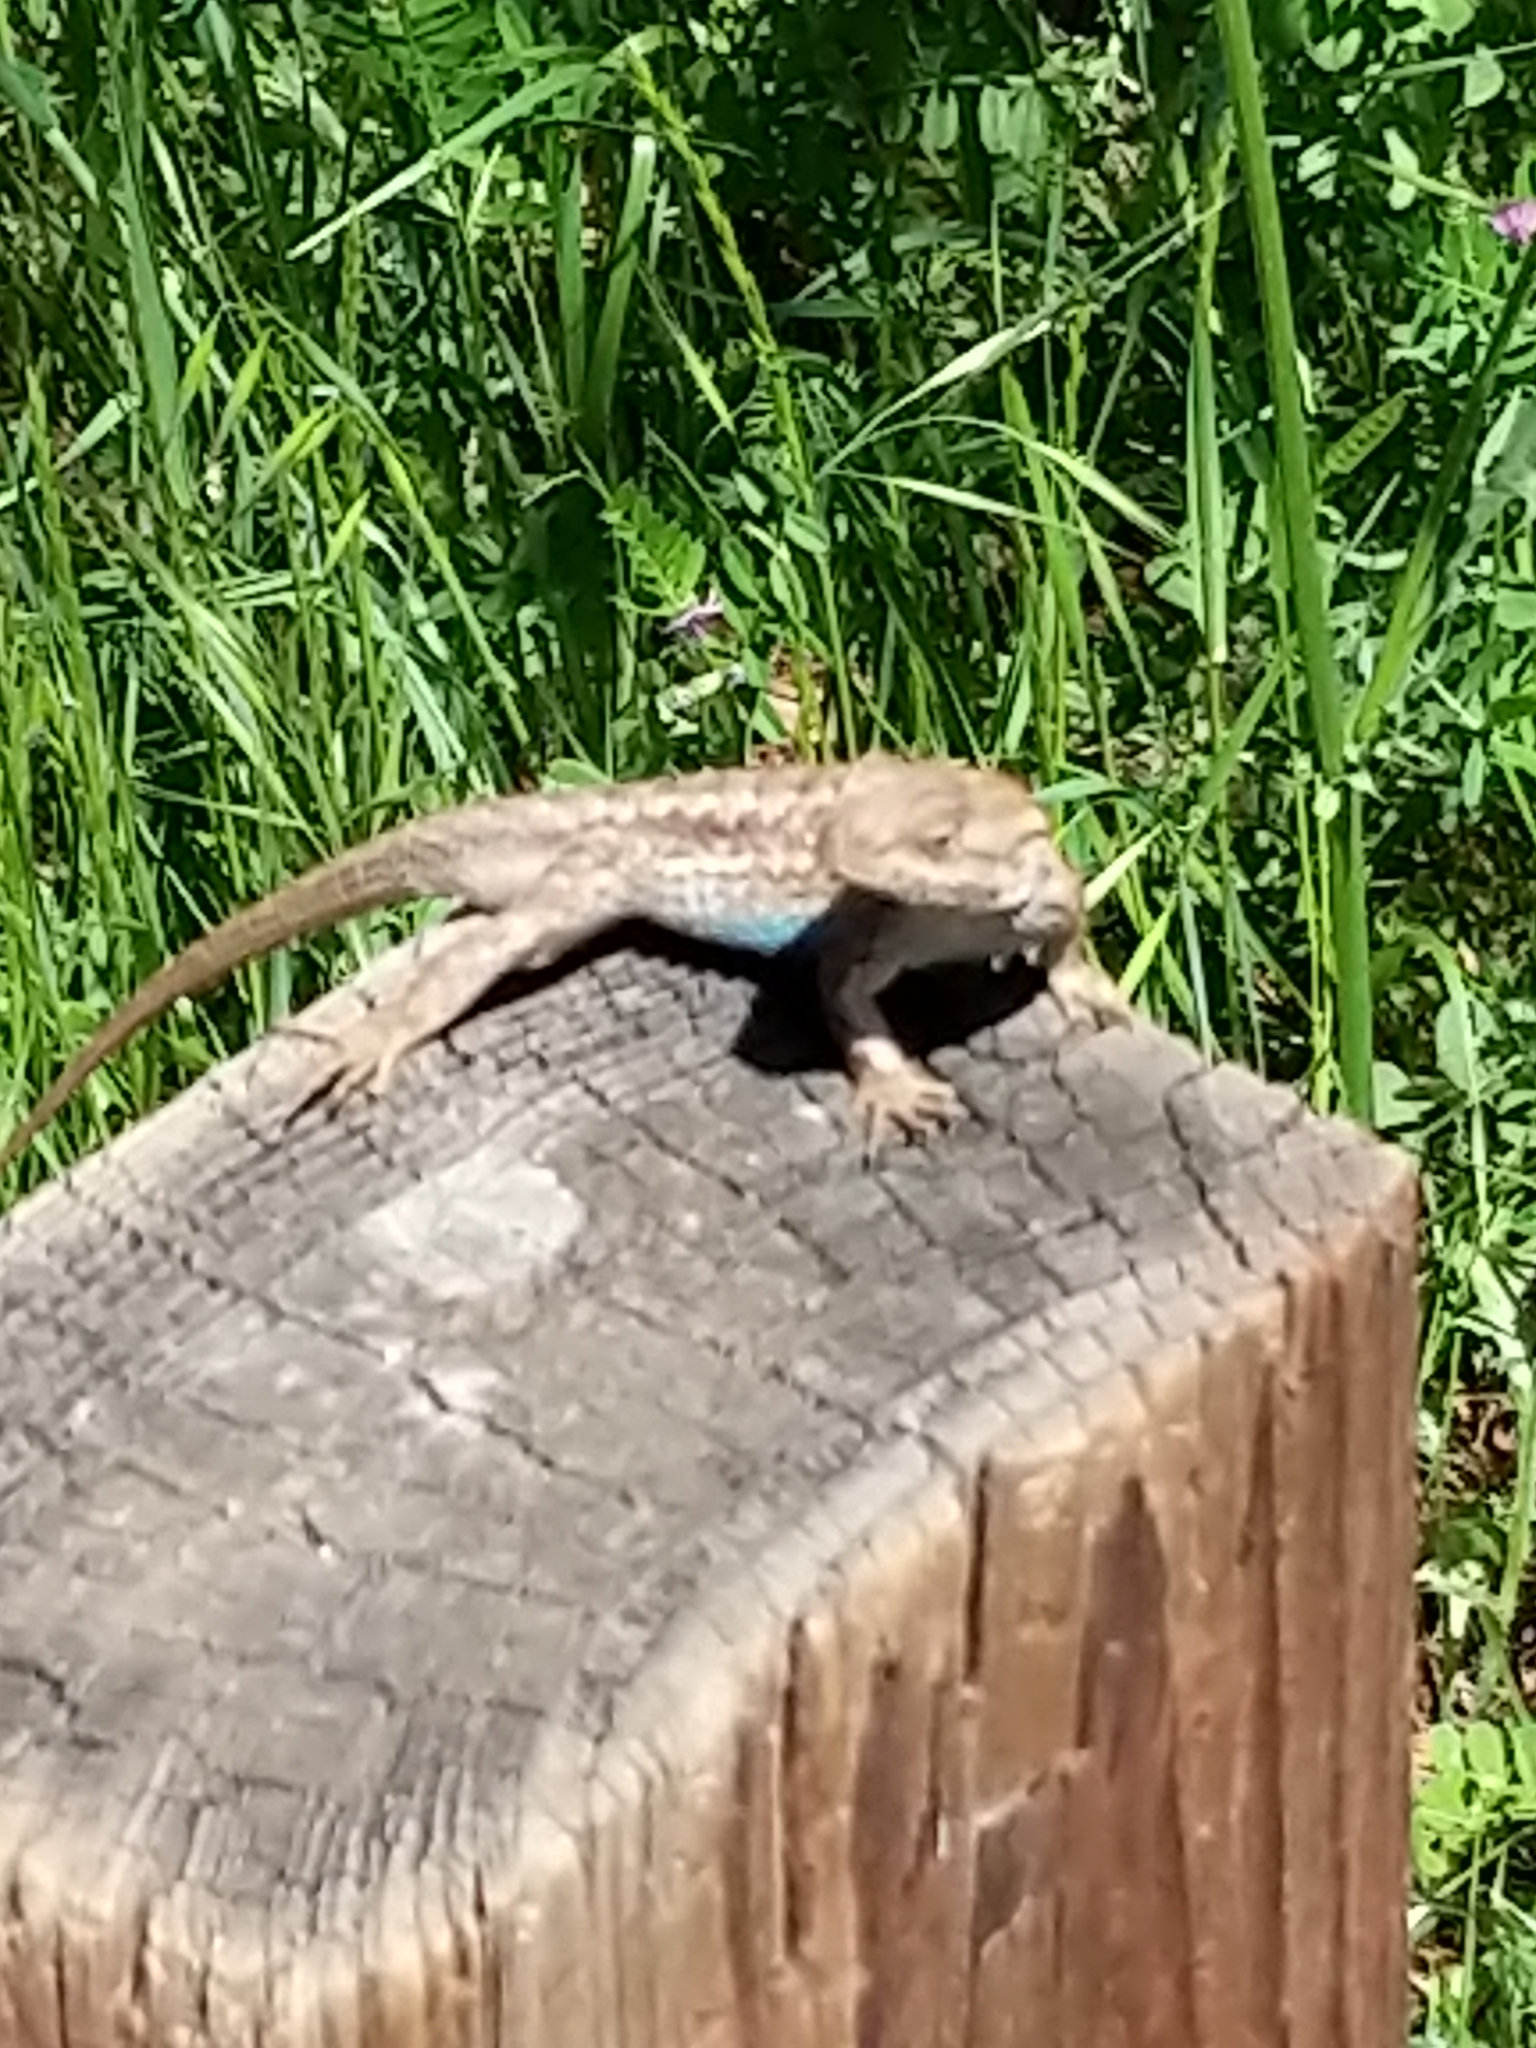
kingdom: Animalia
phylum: Chordata
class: Squamata
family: Phrynosomatidae
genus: Sceloporus
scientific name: Sceloporus occidentalis
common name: Western fence lizard
